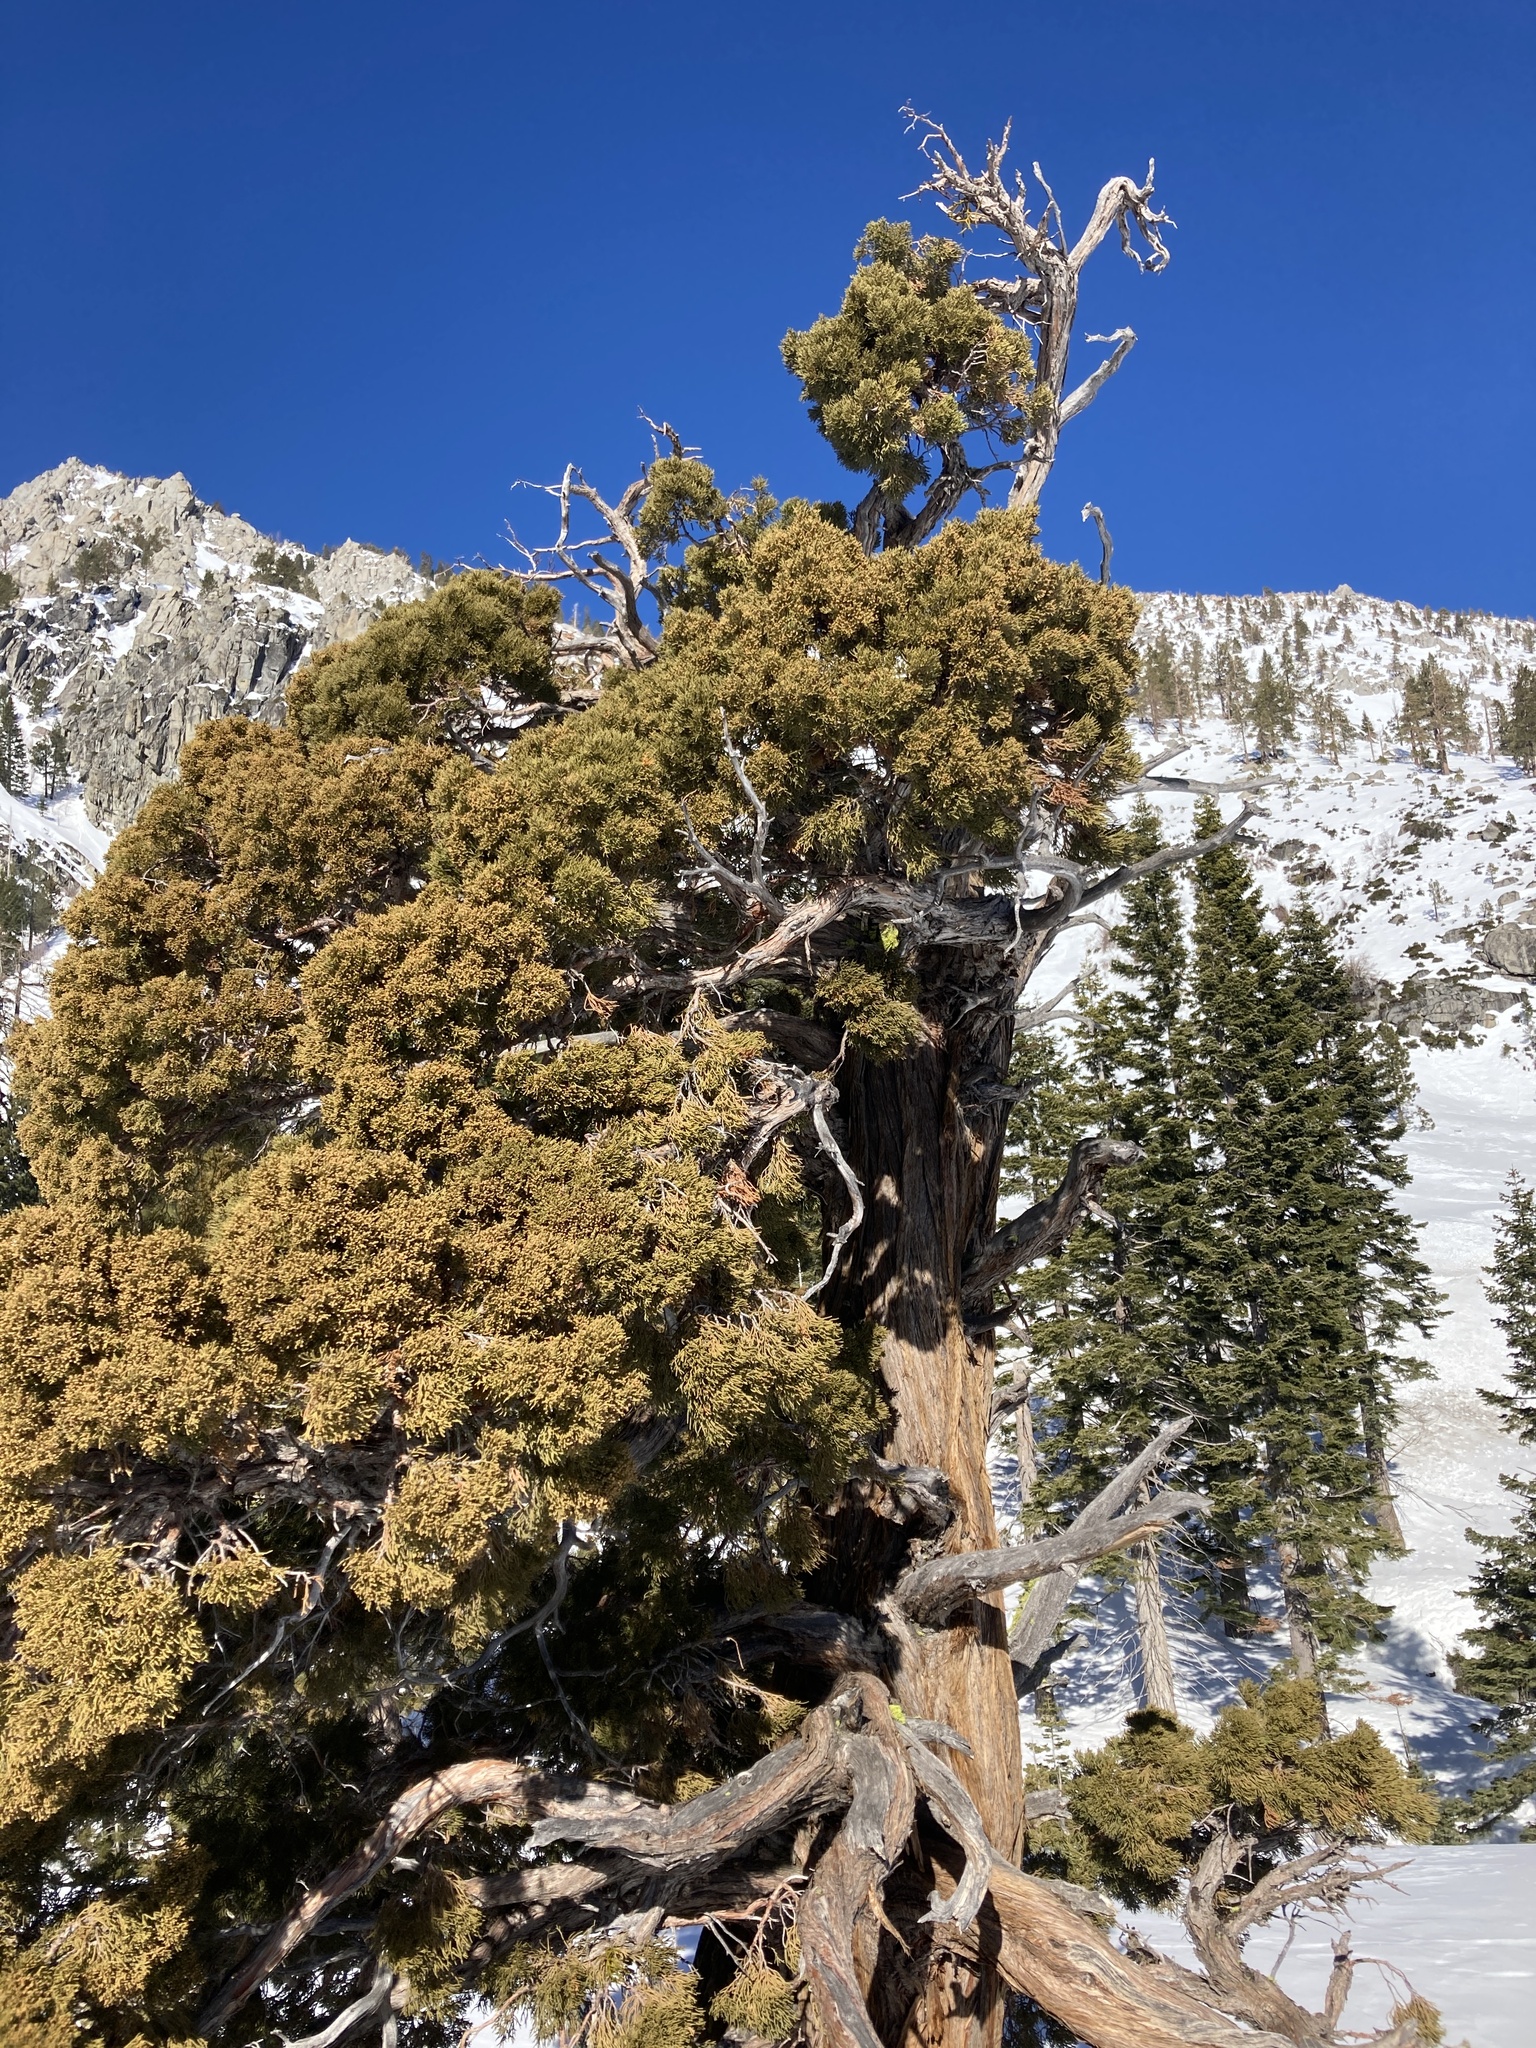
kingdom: Plantae
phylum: Tracheophyta
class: Pinopsida
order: Pinales
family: Cupressaceae
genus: Juniperus
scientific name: Juniperus occidentalis
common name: Western juniper
